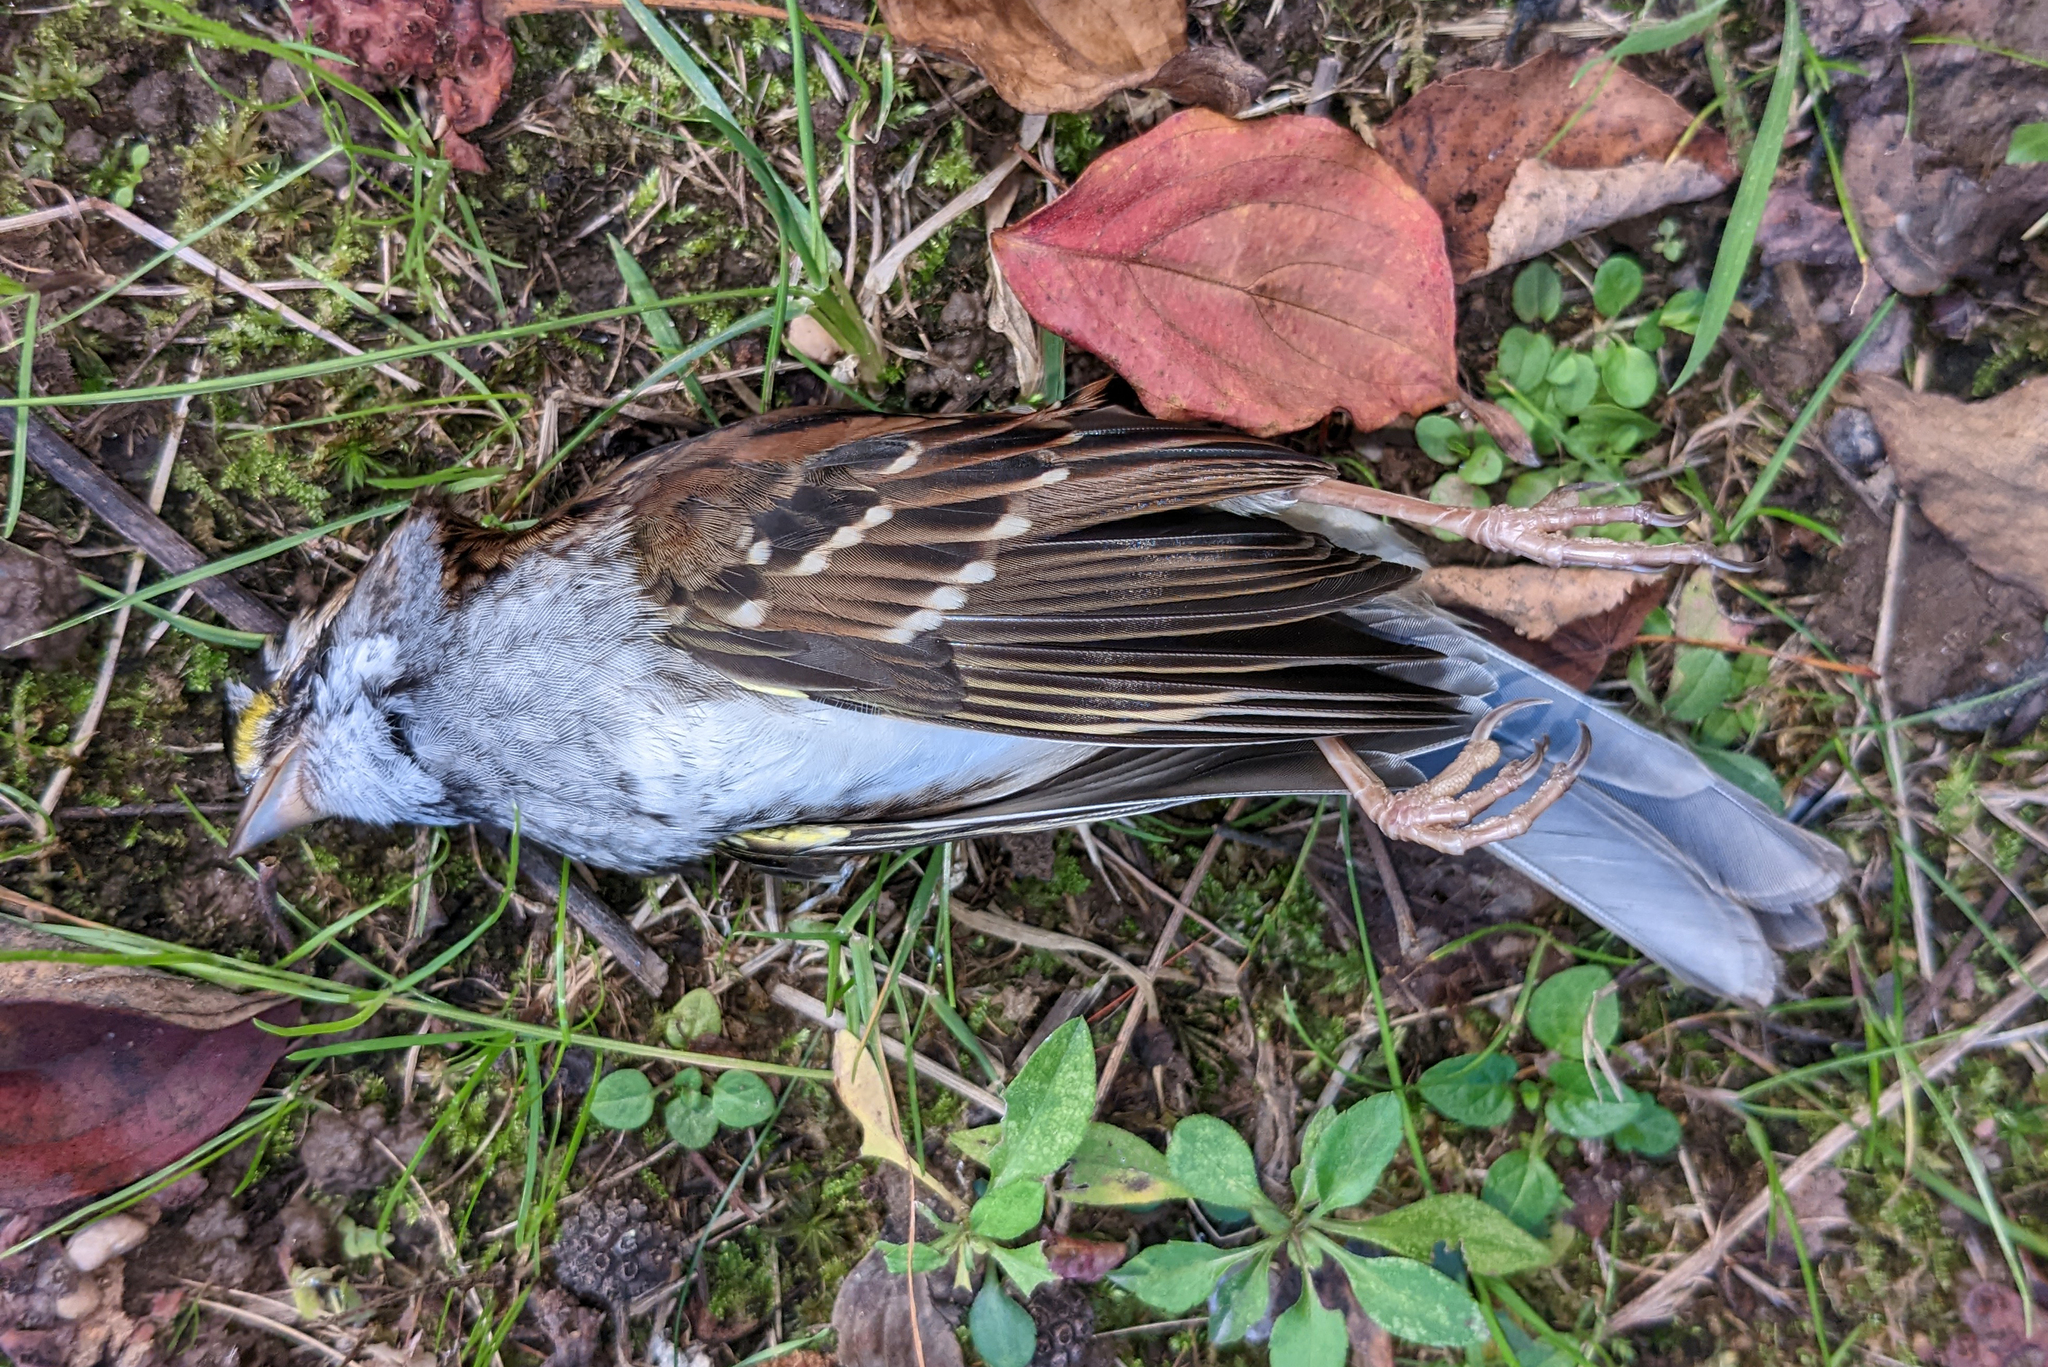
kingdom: Animalia
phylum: Chordata
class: Aves
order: Passeriformes
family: Passerellidae
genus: Zonotrichia
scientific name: Zonotrichia albicollis
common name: White-throated sparrow
